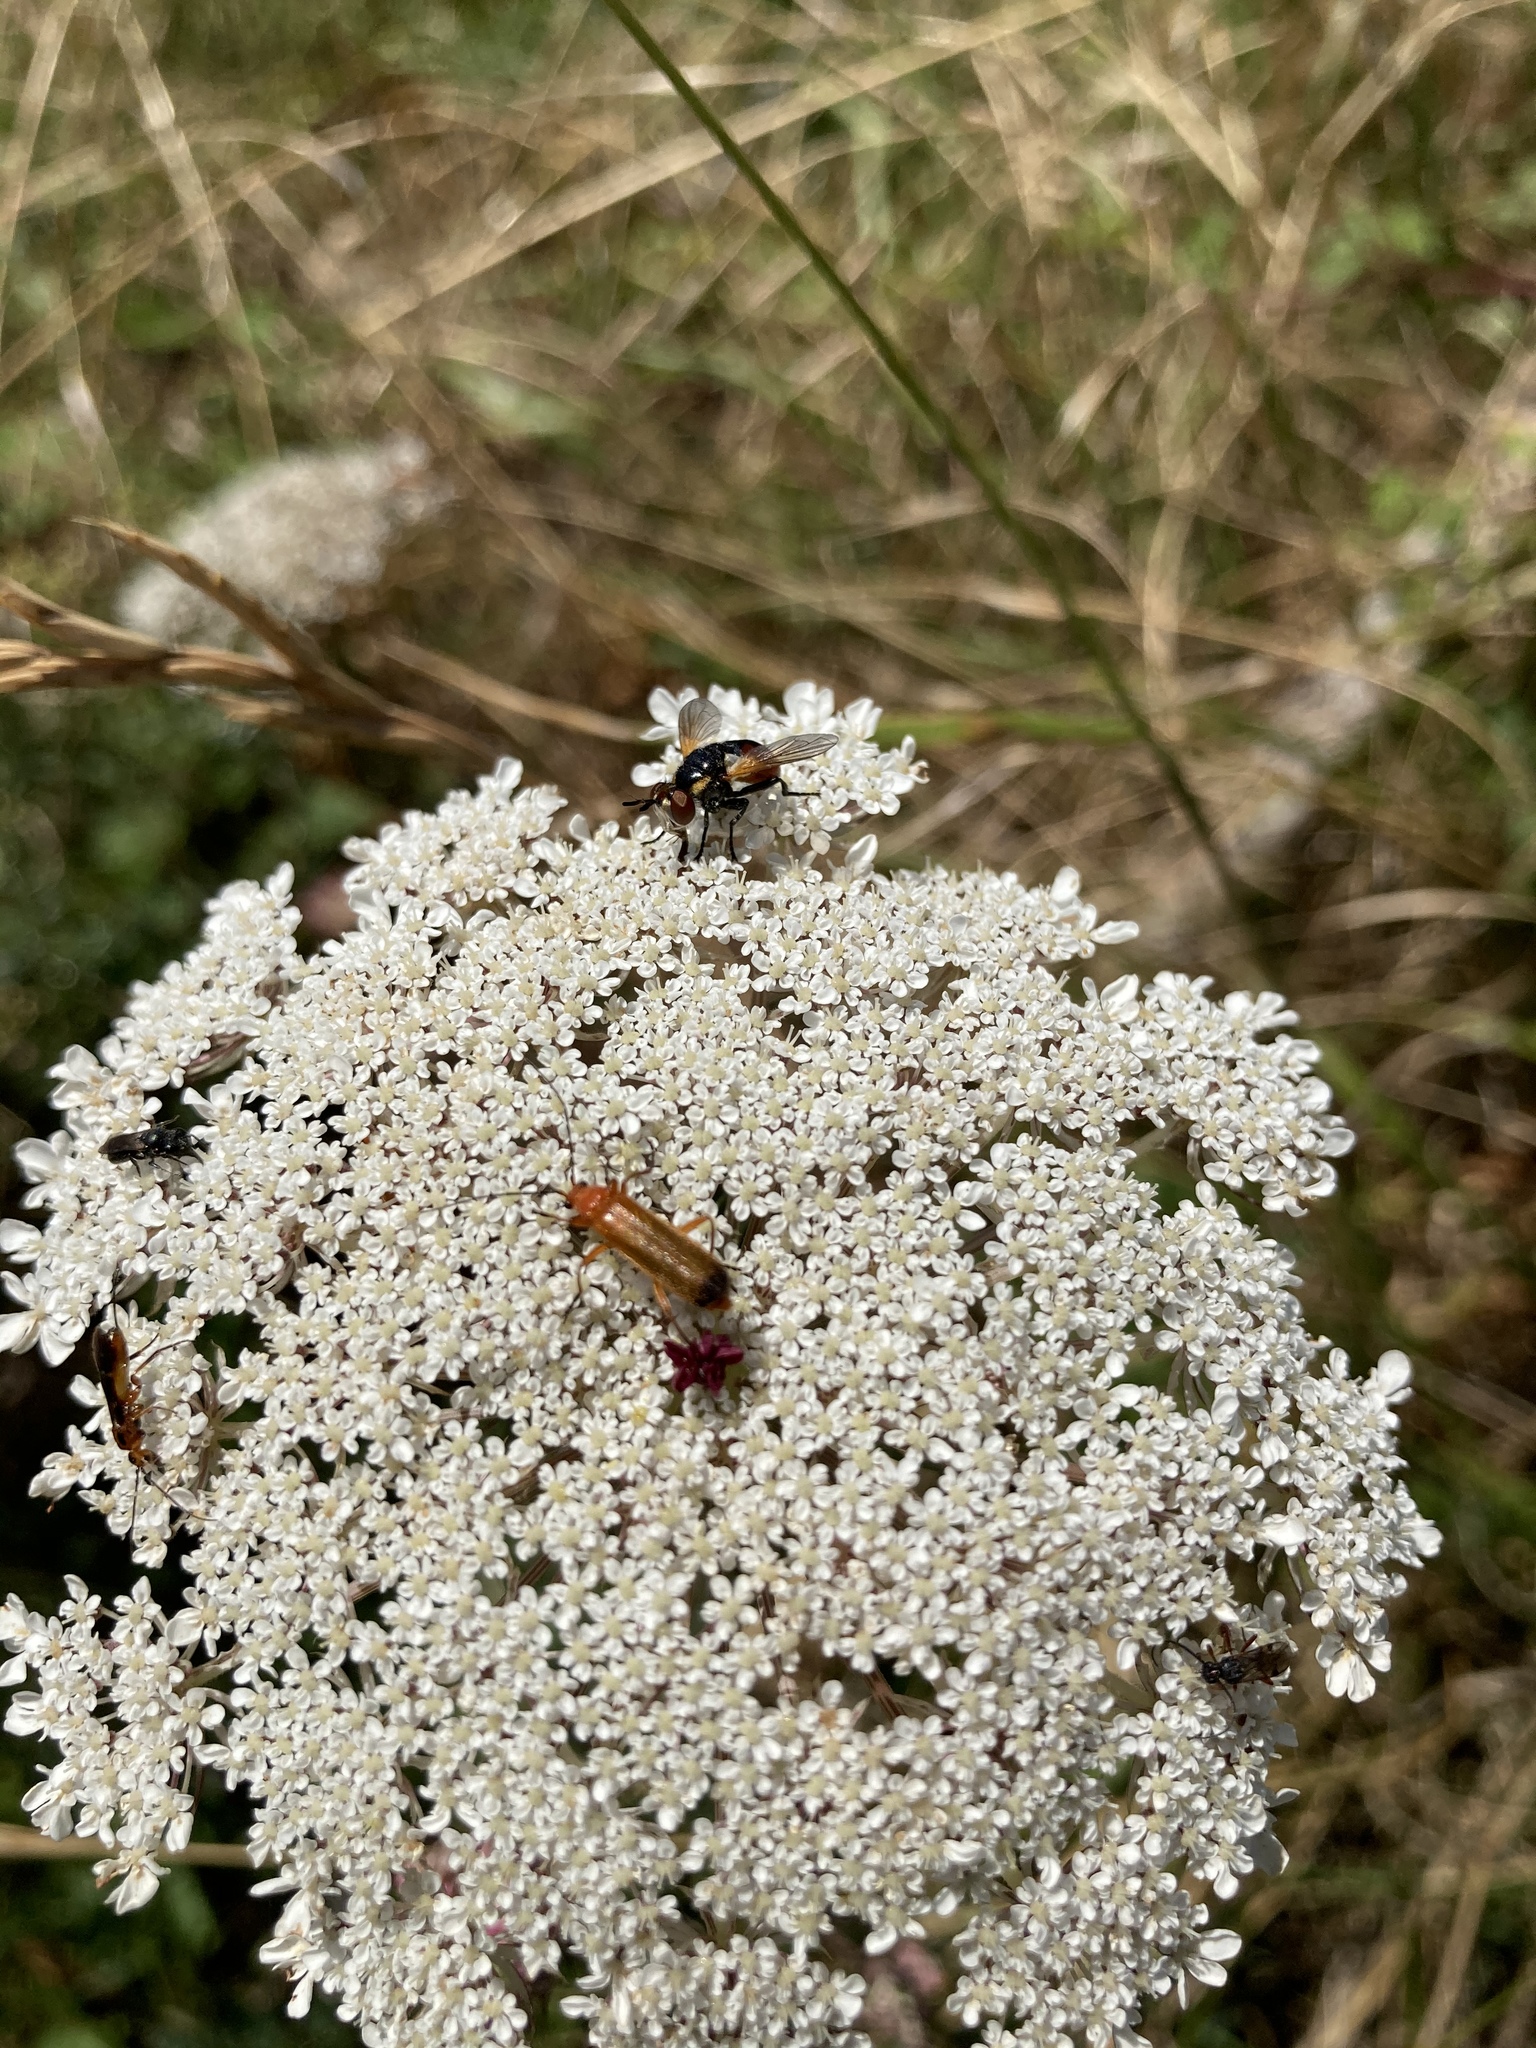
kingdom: Animalia
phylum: Arthropoda
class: Insecta
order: Coleoptera
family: Cantharidae
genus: Rhagonycha
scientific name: Rhagonycha fulva
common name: Common red soldier beetle
